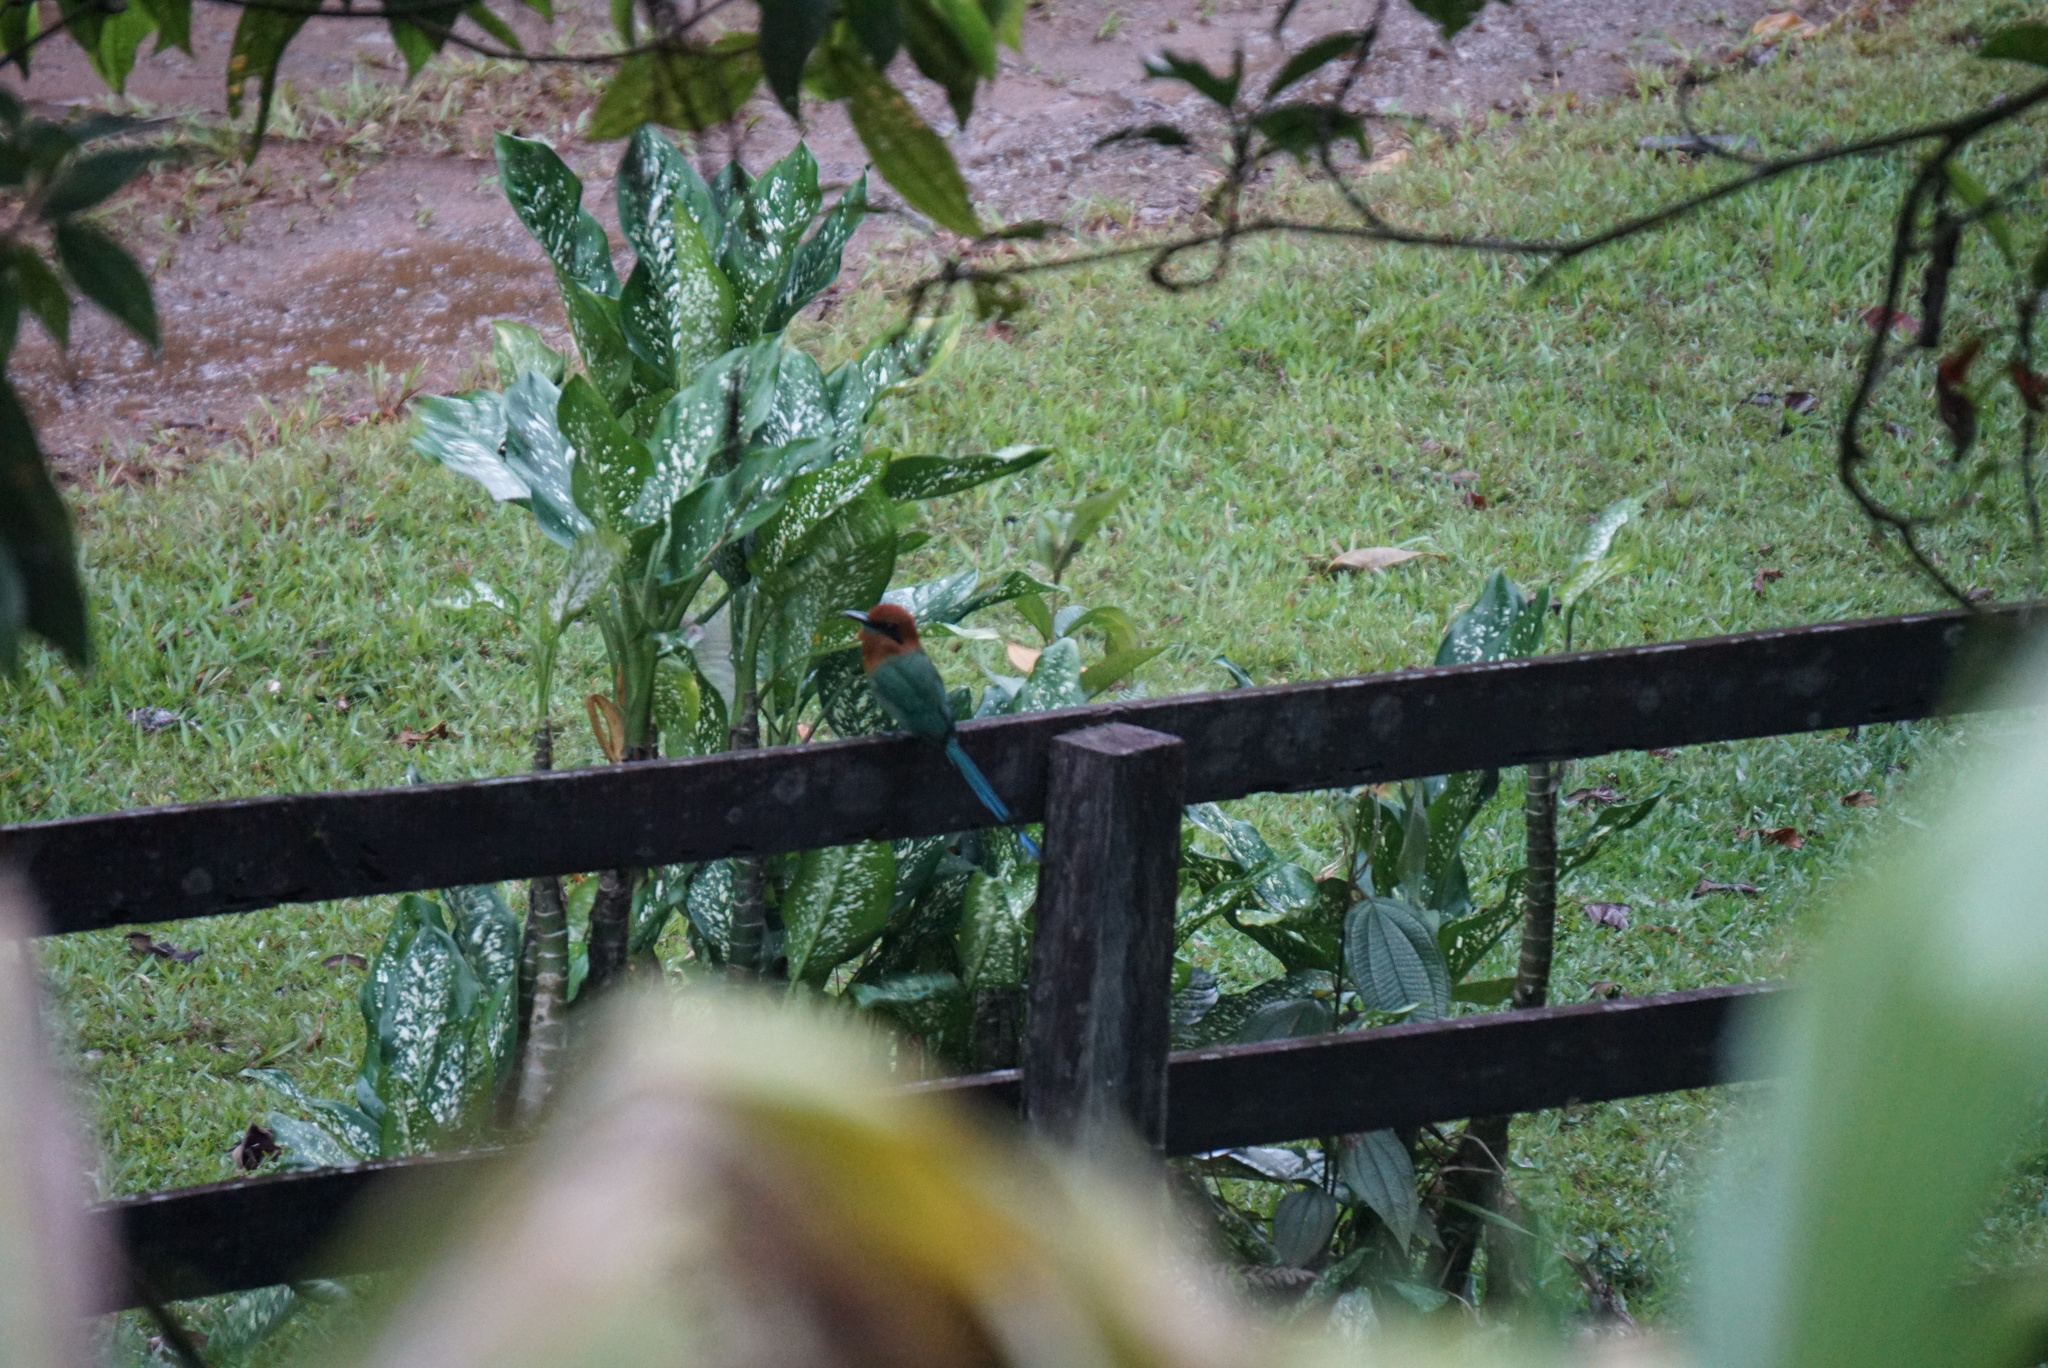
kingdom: Animalia
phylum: Chordata
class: Aves
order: Coraciiformes
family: Momotidae
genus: Electron
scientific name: Electron platyrhynchum
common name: Broad-billed motmot
